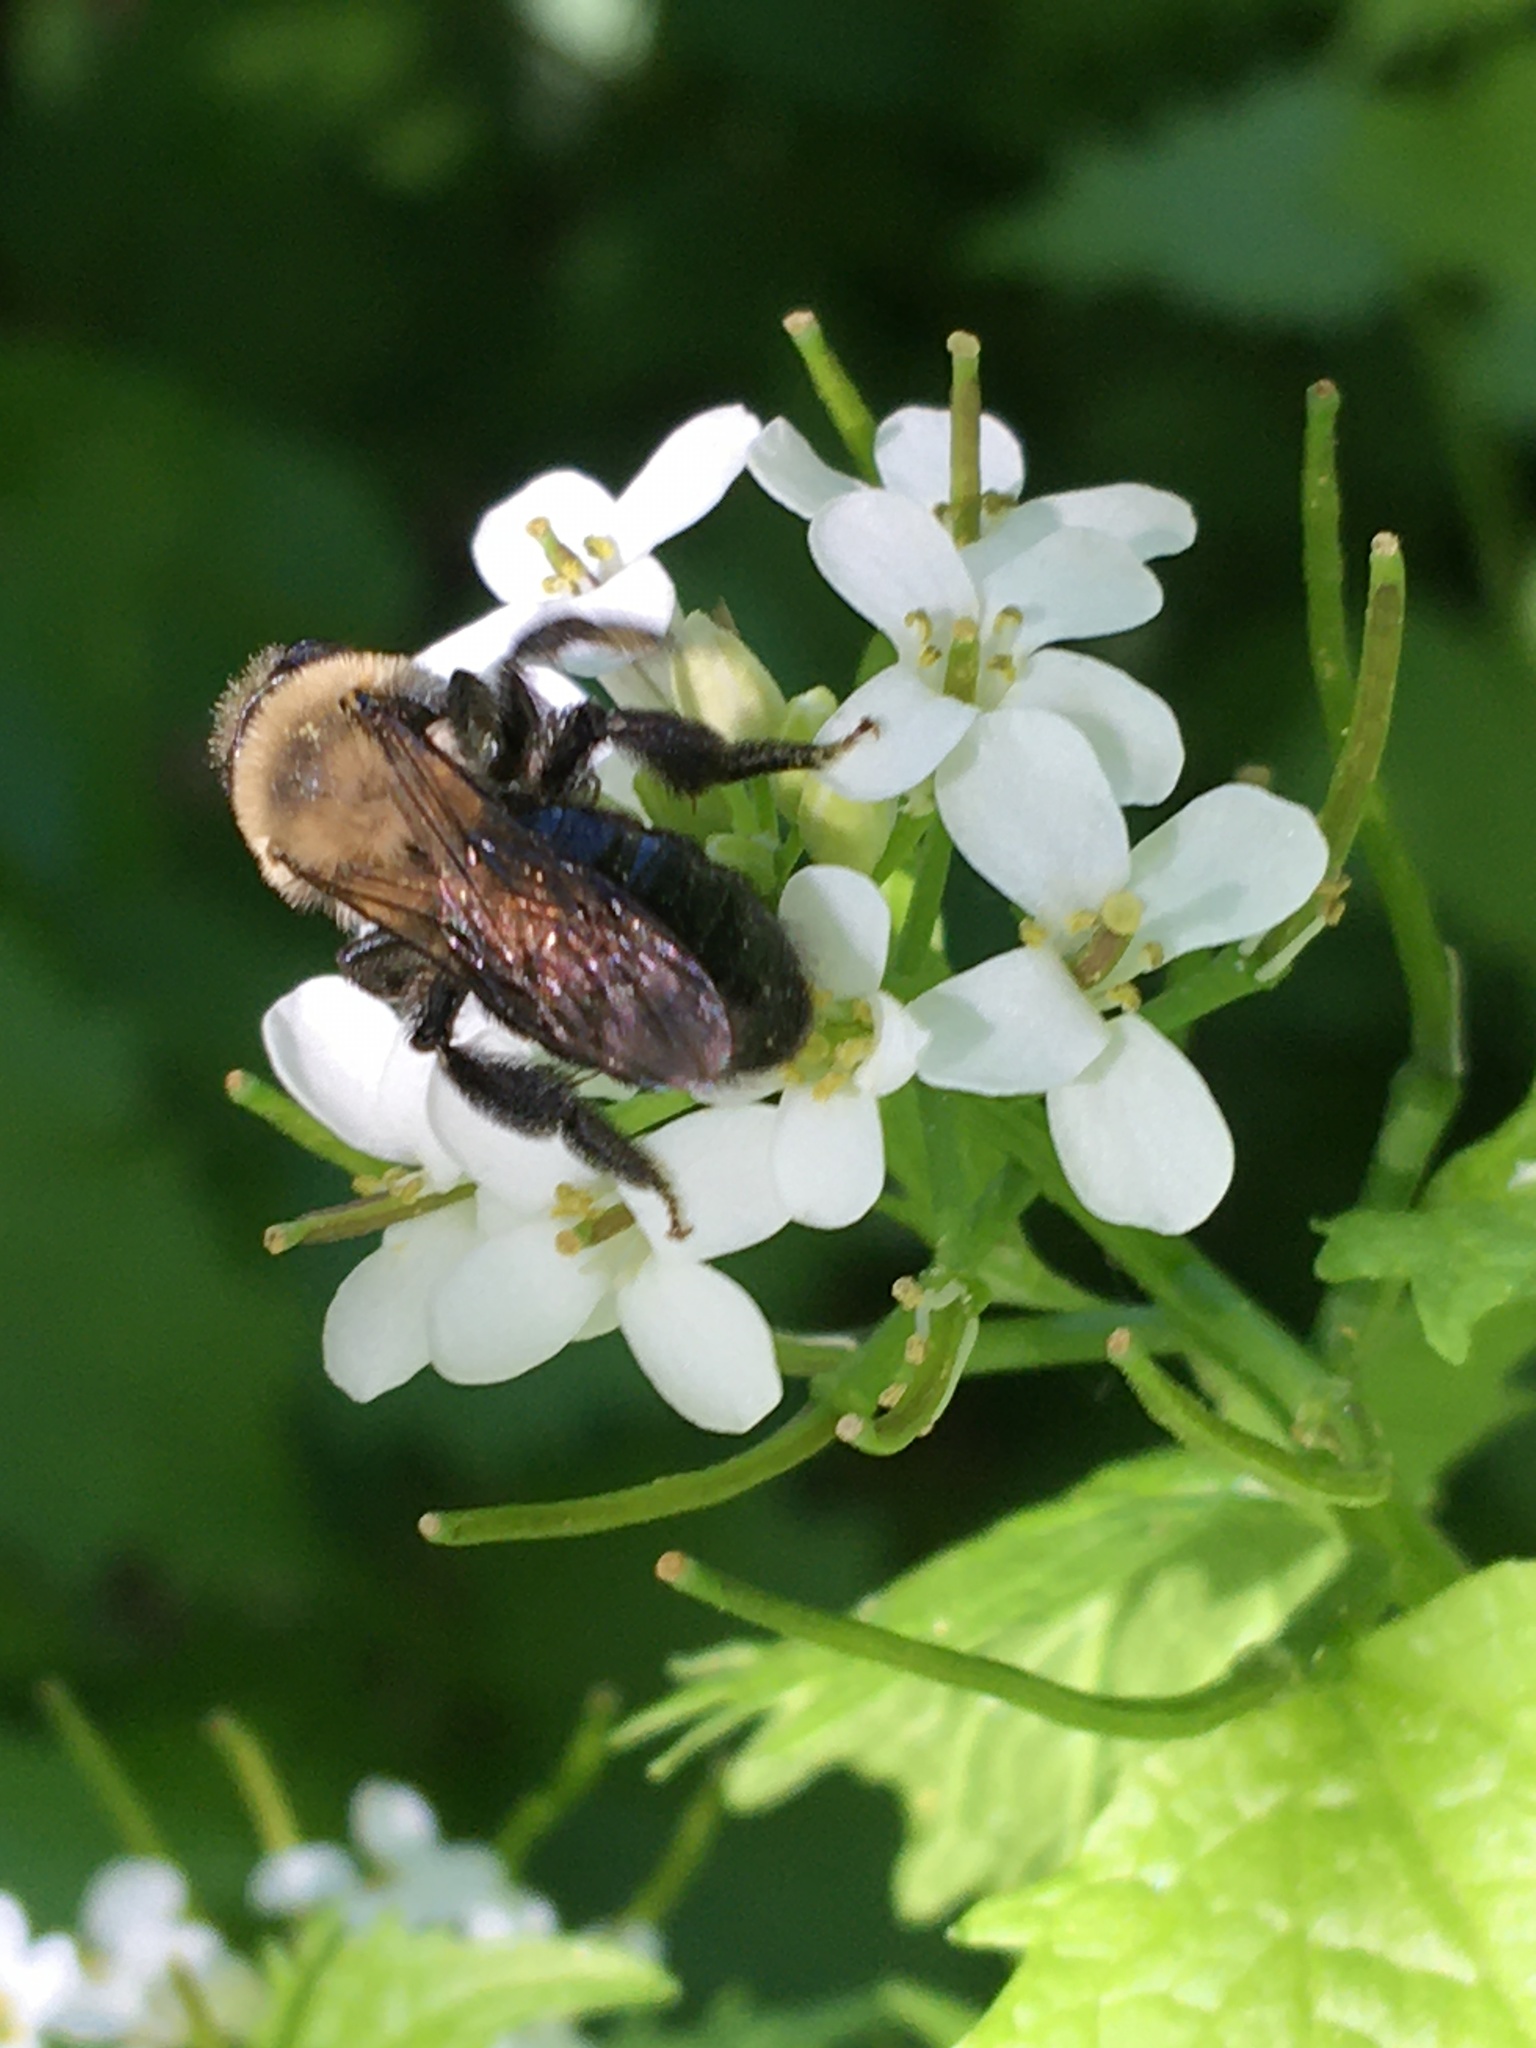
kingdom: Animalia
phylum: Arthropoda
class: Insecta
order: Hymenoptera
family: Andrenidae
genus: Andrena
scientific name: Andrena carlini
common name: Carlin's mining bee
